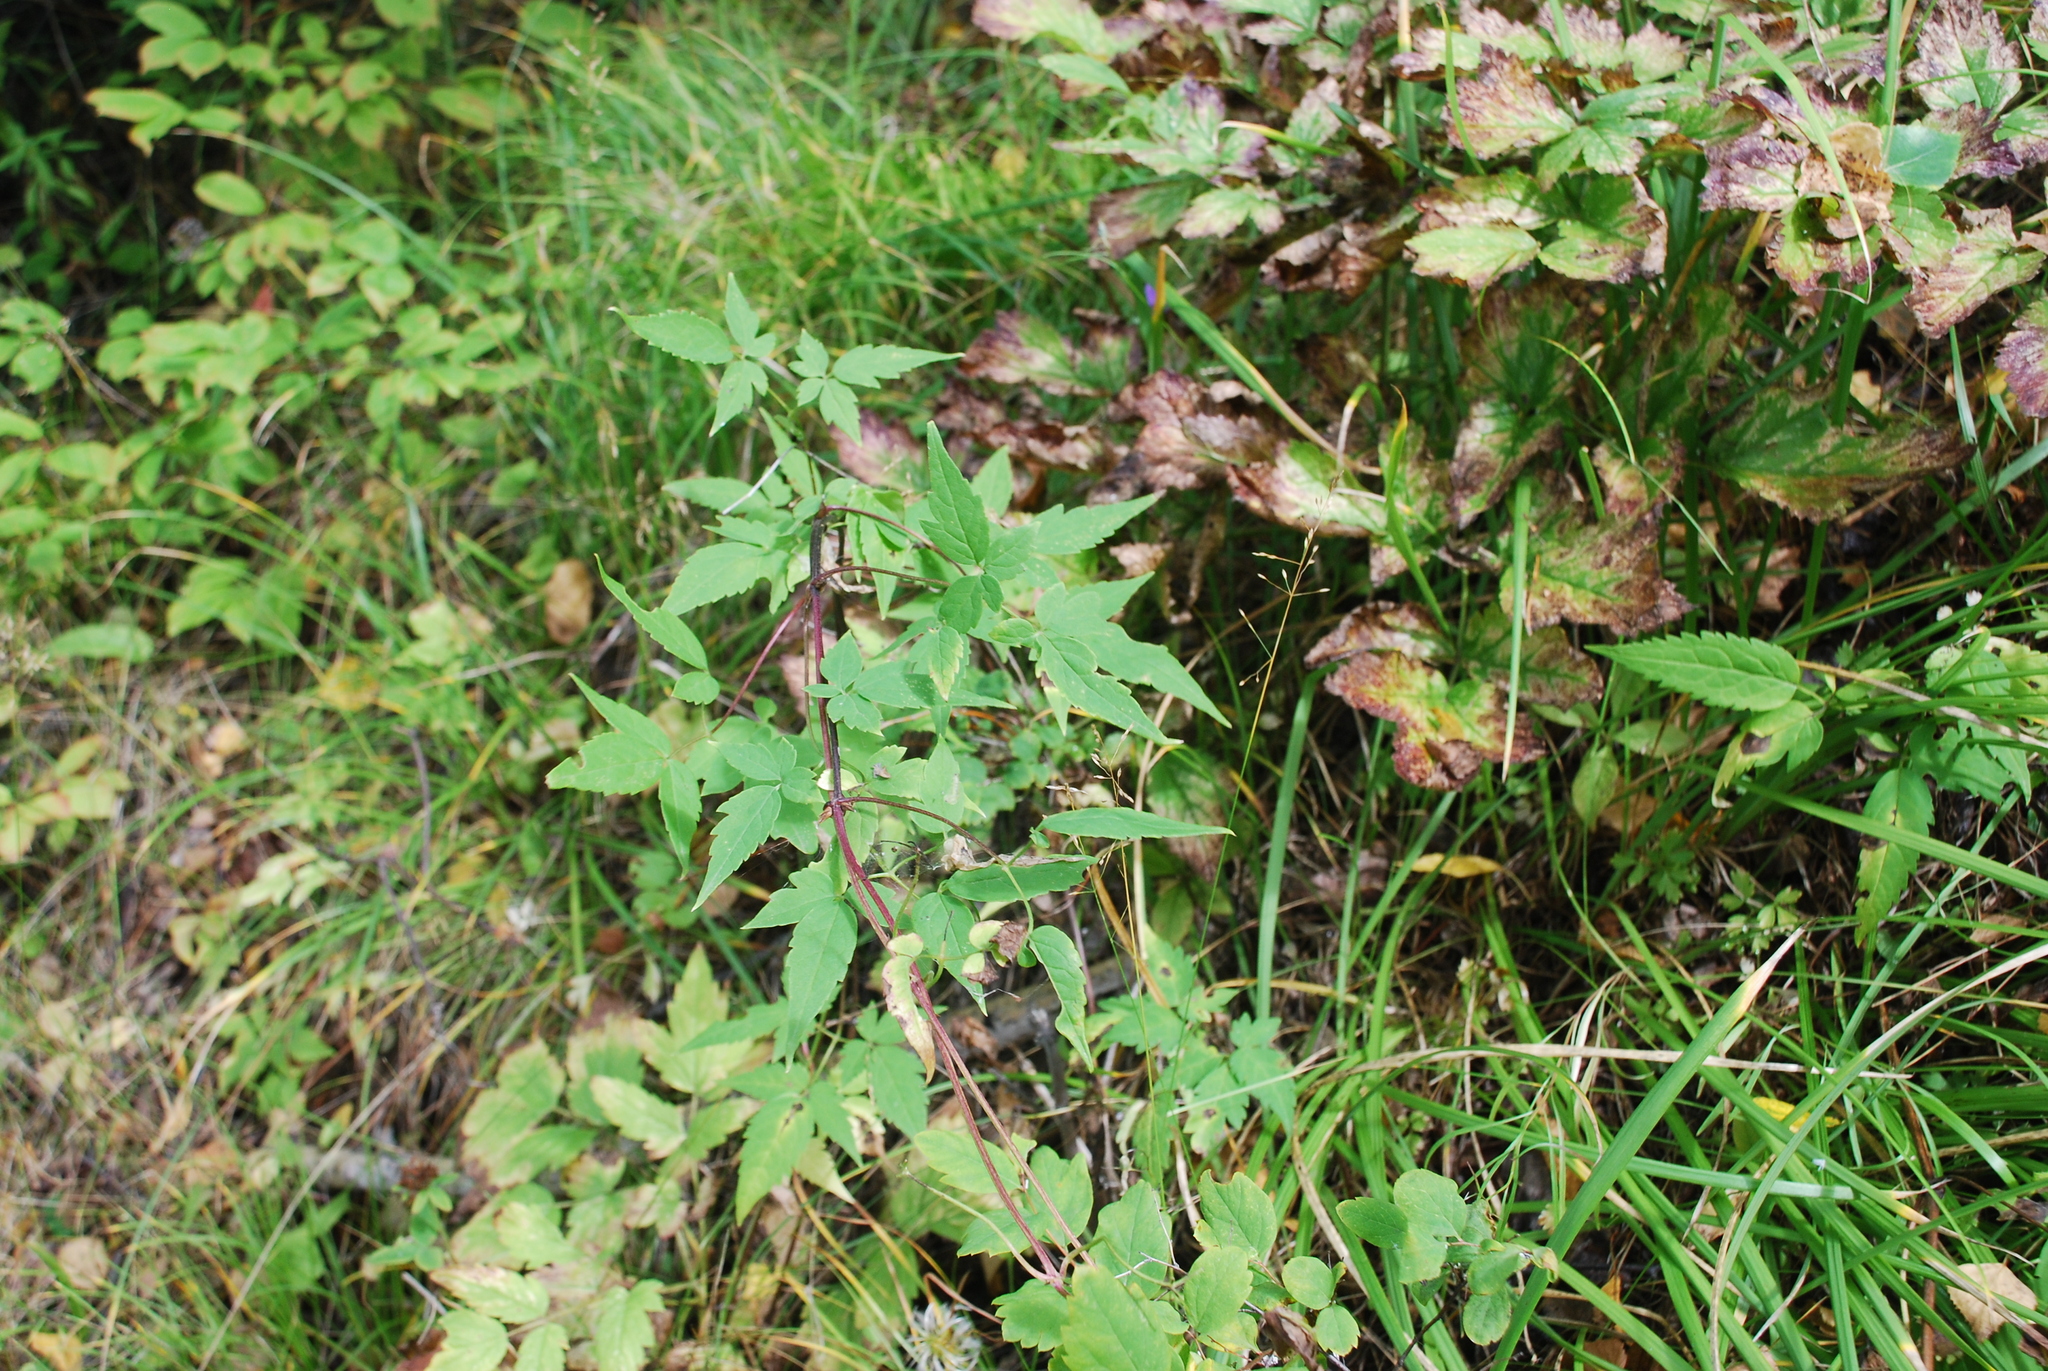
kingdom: Plantae
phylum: Tracheophyta
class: Magnoliopsida
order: Ranunculales
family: Ranunculaceae
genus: Clematis
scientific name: Clematis sibirica
